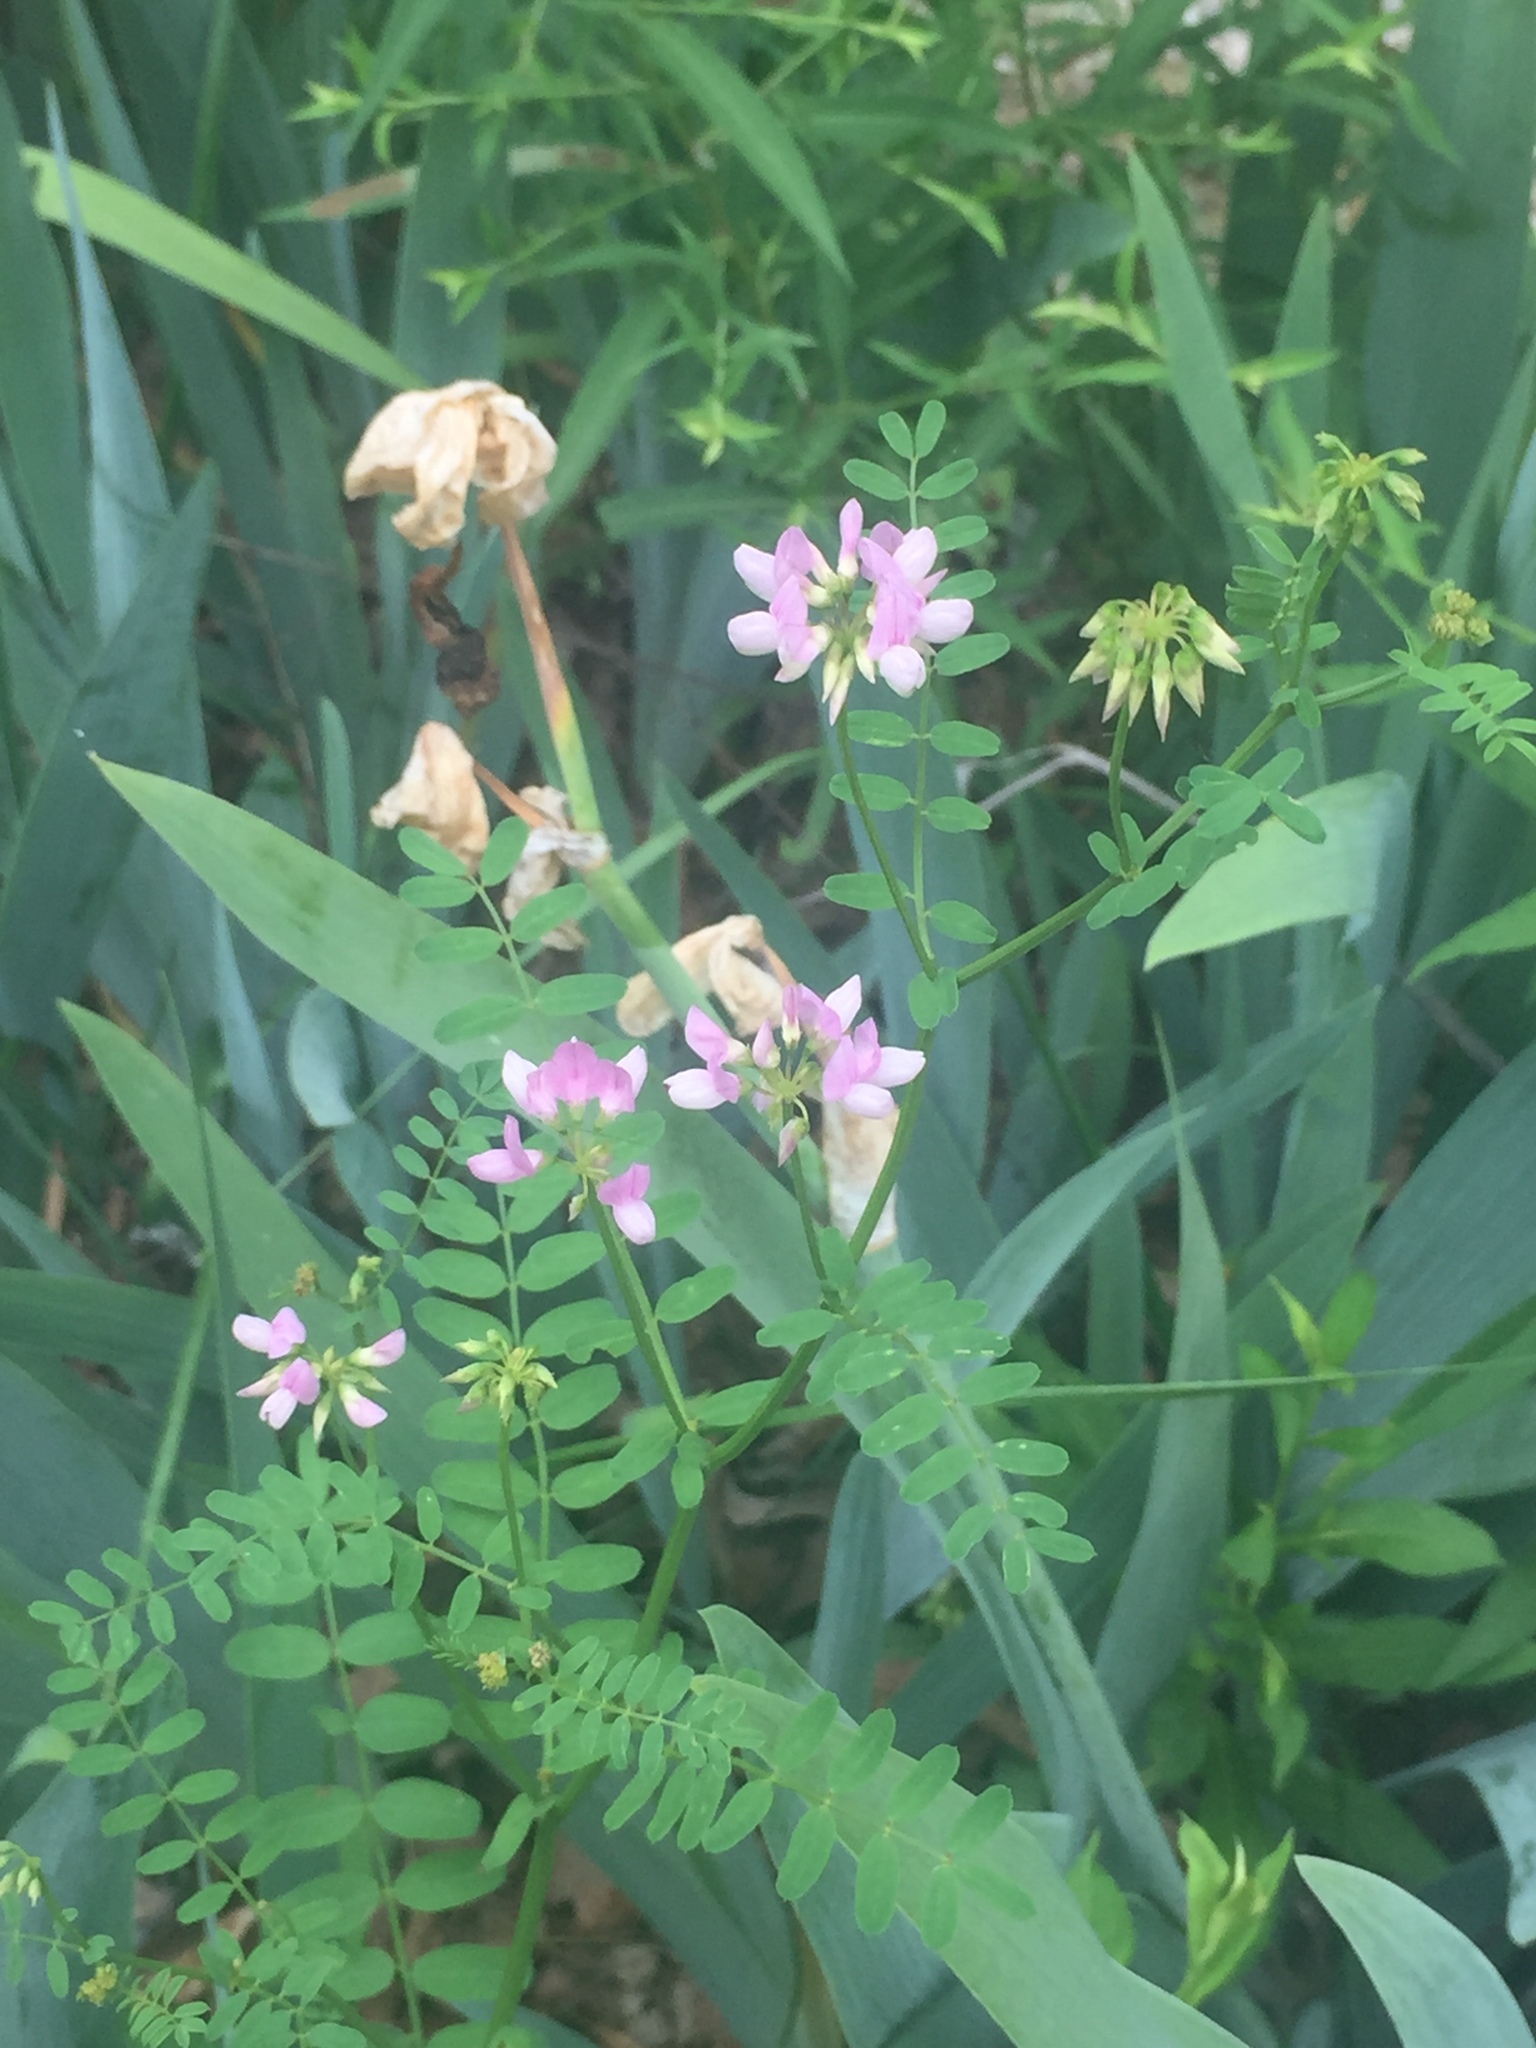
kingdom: Plantae
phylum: Tracheophyta
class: Magnoliopsida
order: Fabales
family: Fabaceae
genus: Coronilla
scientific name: Coronilla varia
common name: Crownvetch
